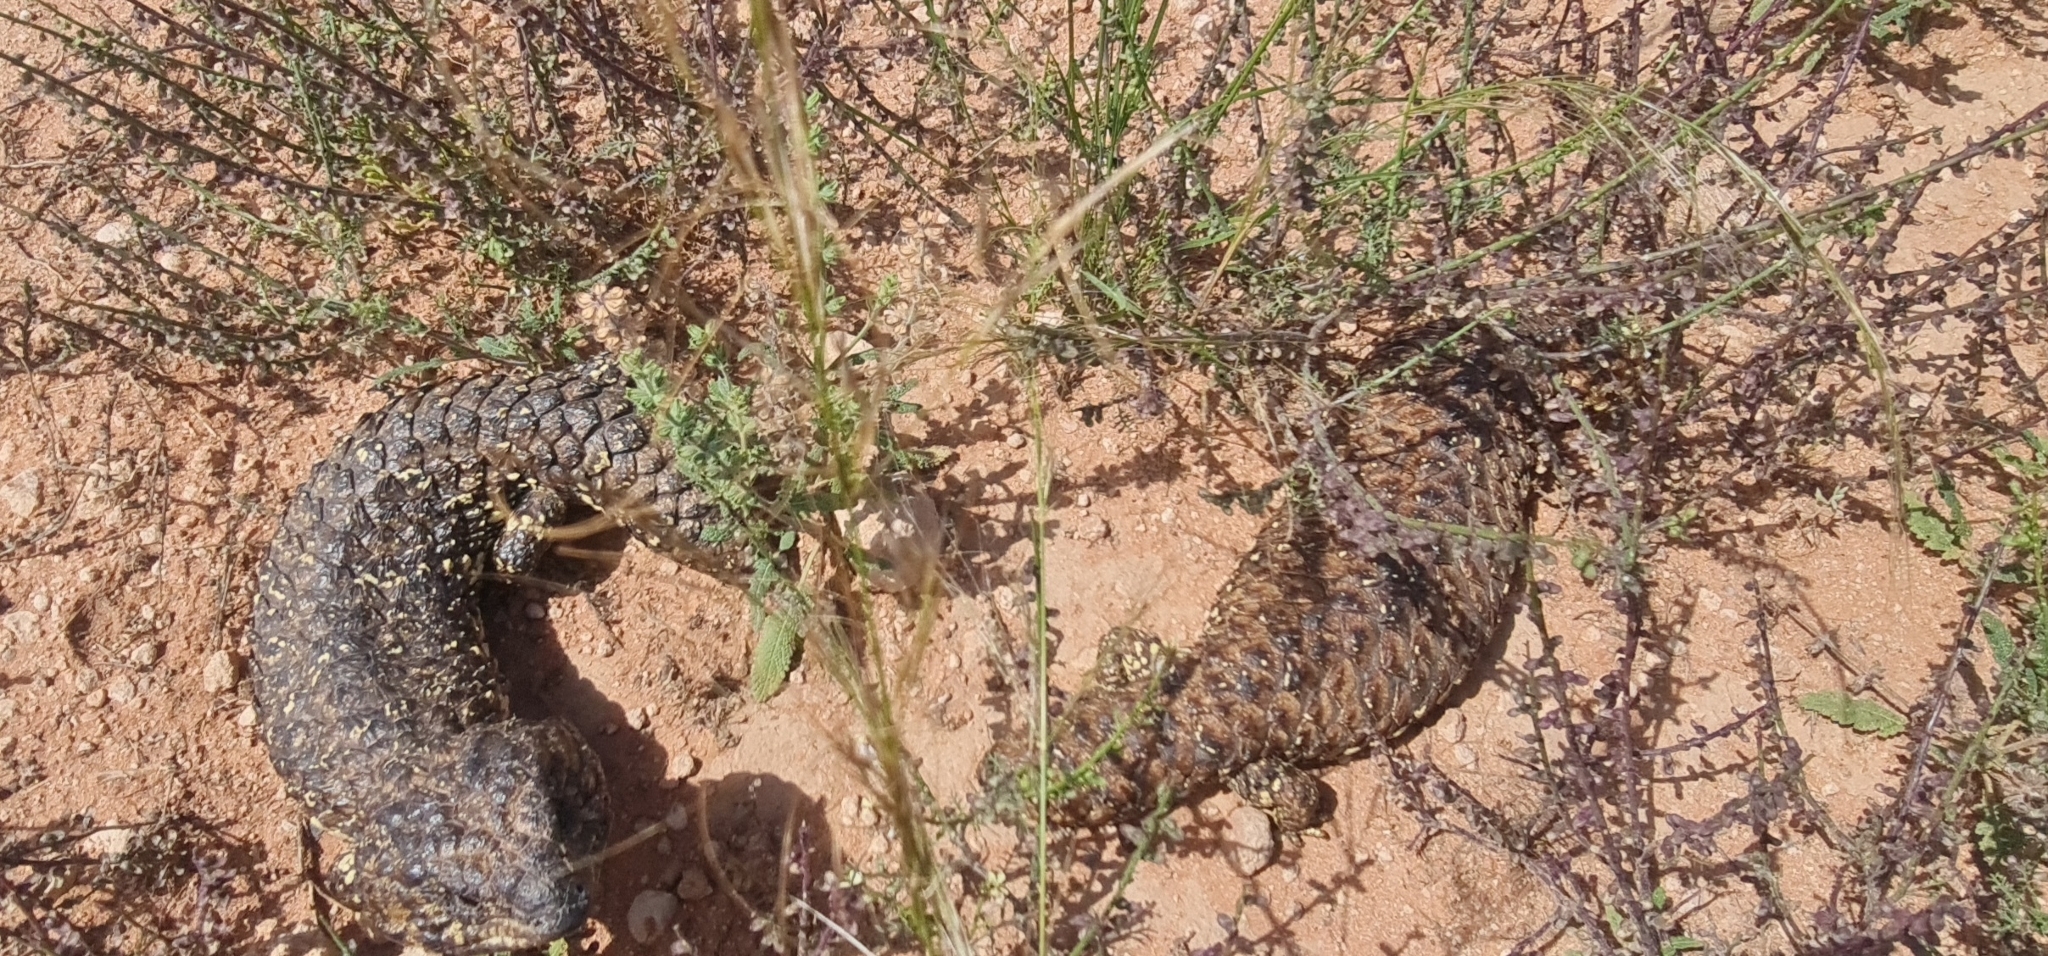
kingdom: Animalia
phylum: Chordata
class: Squamata
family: Scincidae
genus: Tiliqua
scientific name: Tiliqua rugosa
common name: Pinecone lizard
